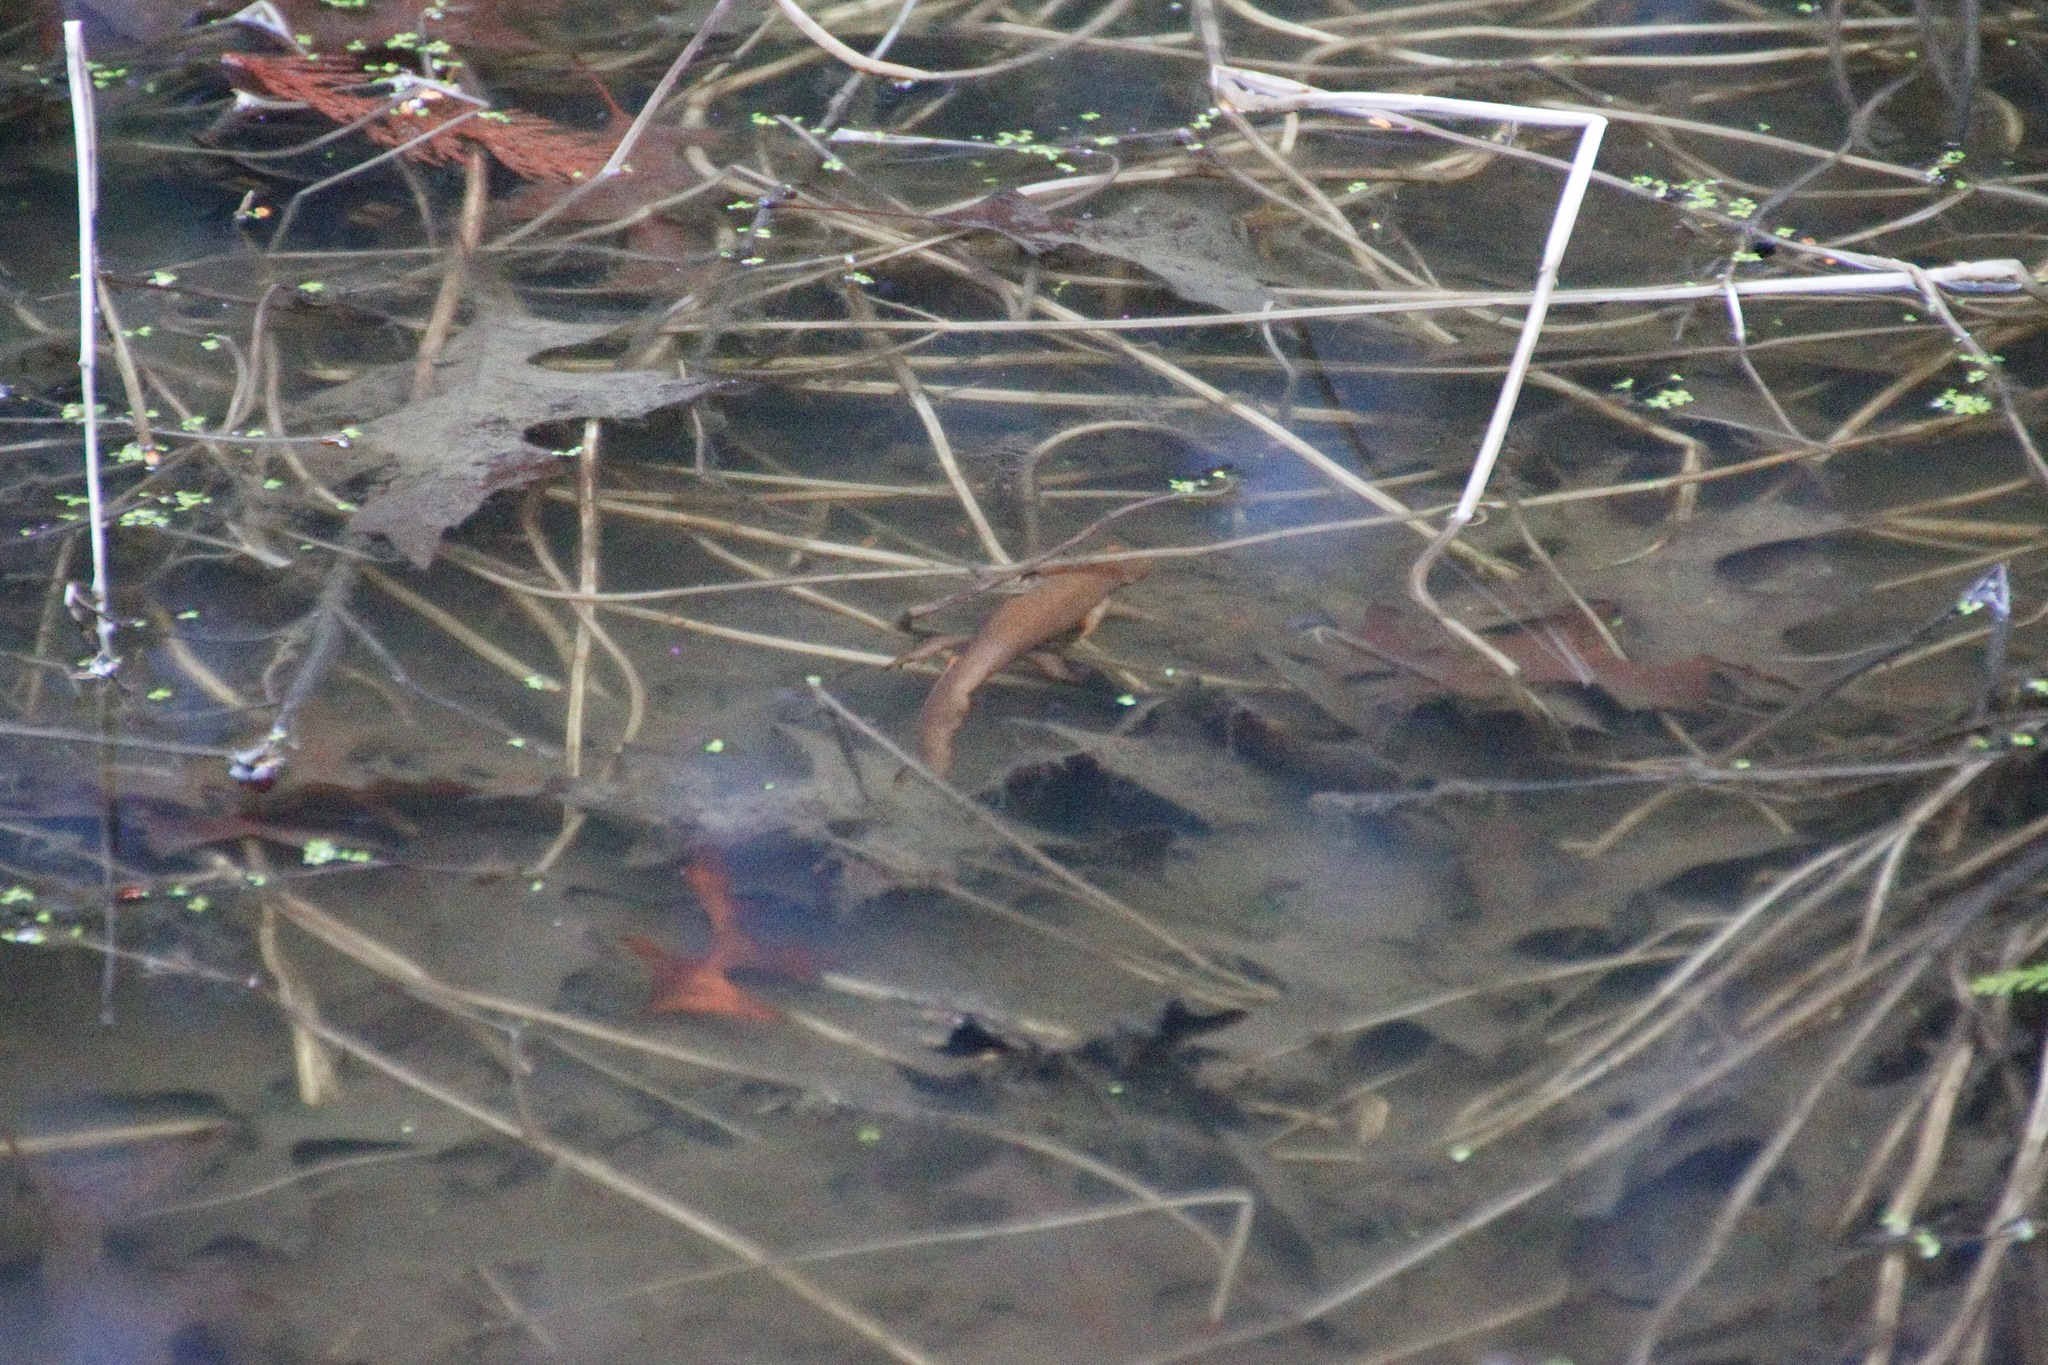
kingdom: Animalia
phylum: Chordata
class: Amphibia
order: Caudata
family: Salamandridae
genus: Taricha
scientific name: Taricha granulosa
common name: Roughskin newt
